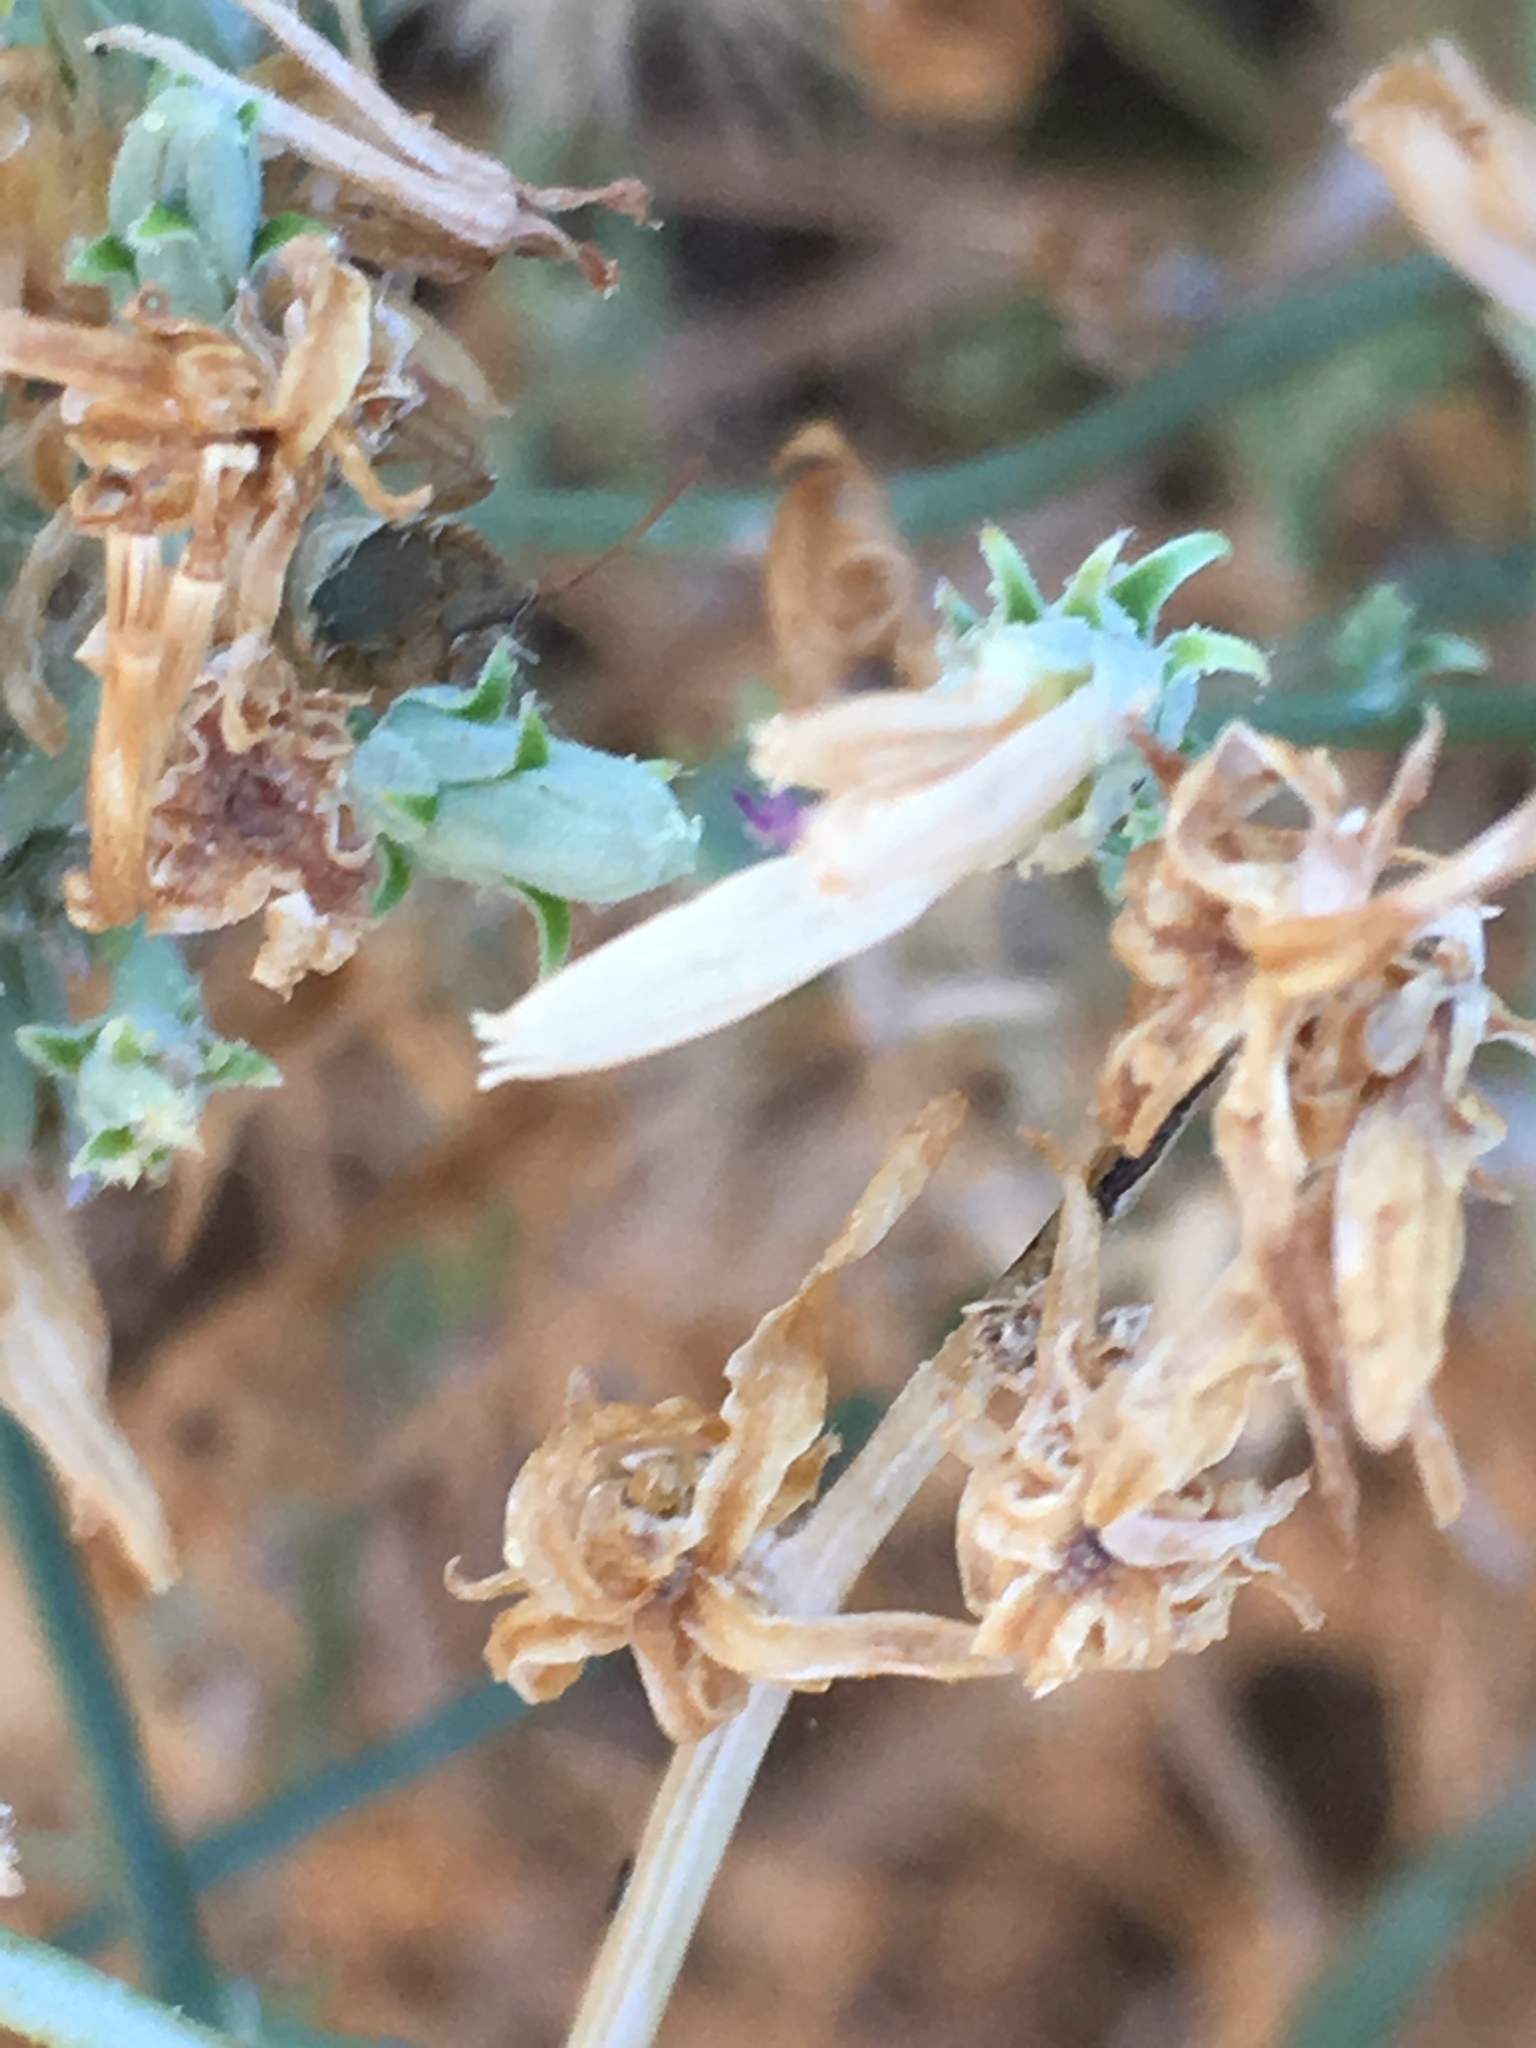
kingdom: Plantae
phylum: Tracheophyta
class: Magnoliopsida
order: Asterales
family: Asteraceae
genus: Stephanomeria
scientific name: Stephanomeria pauciflora
